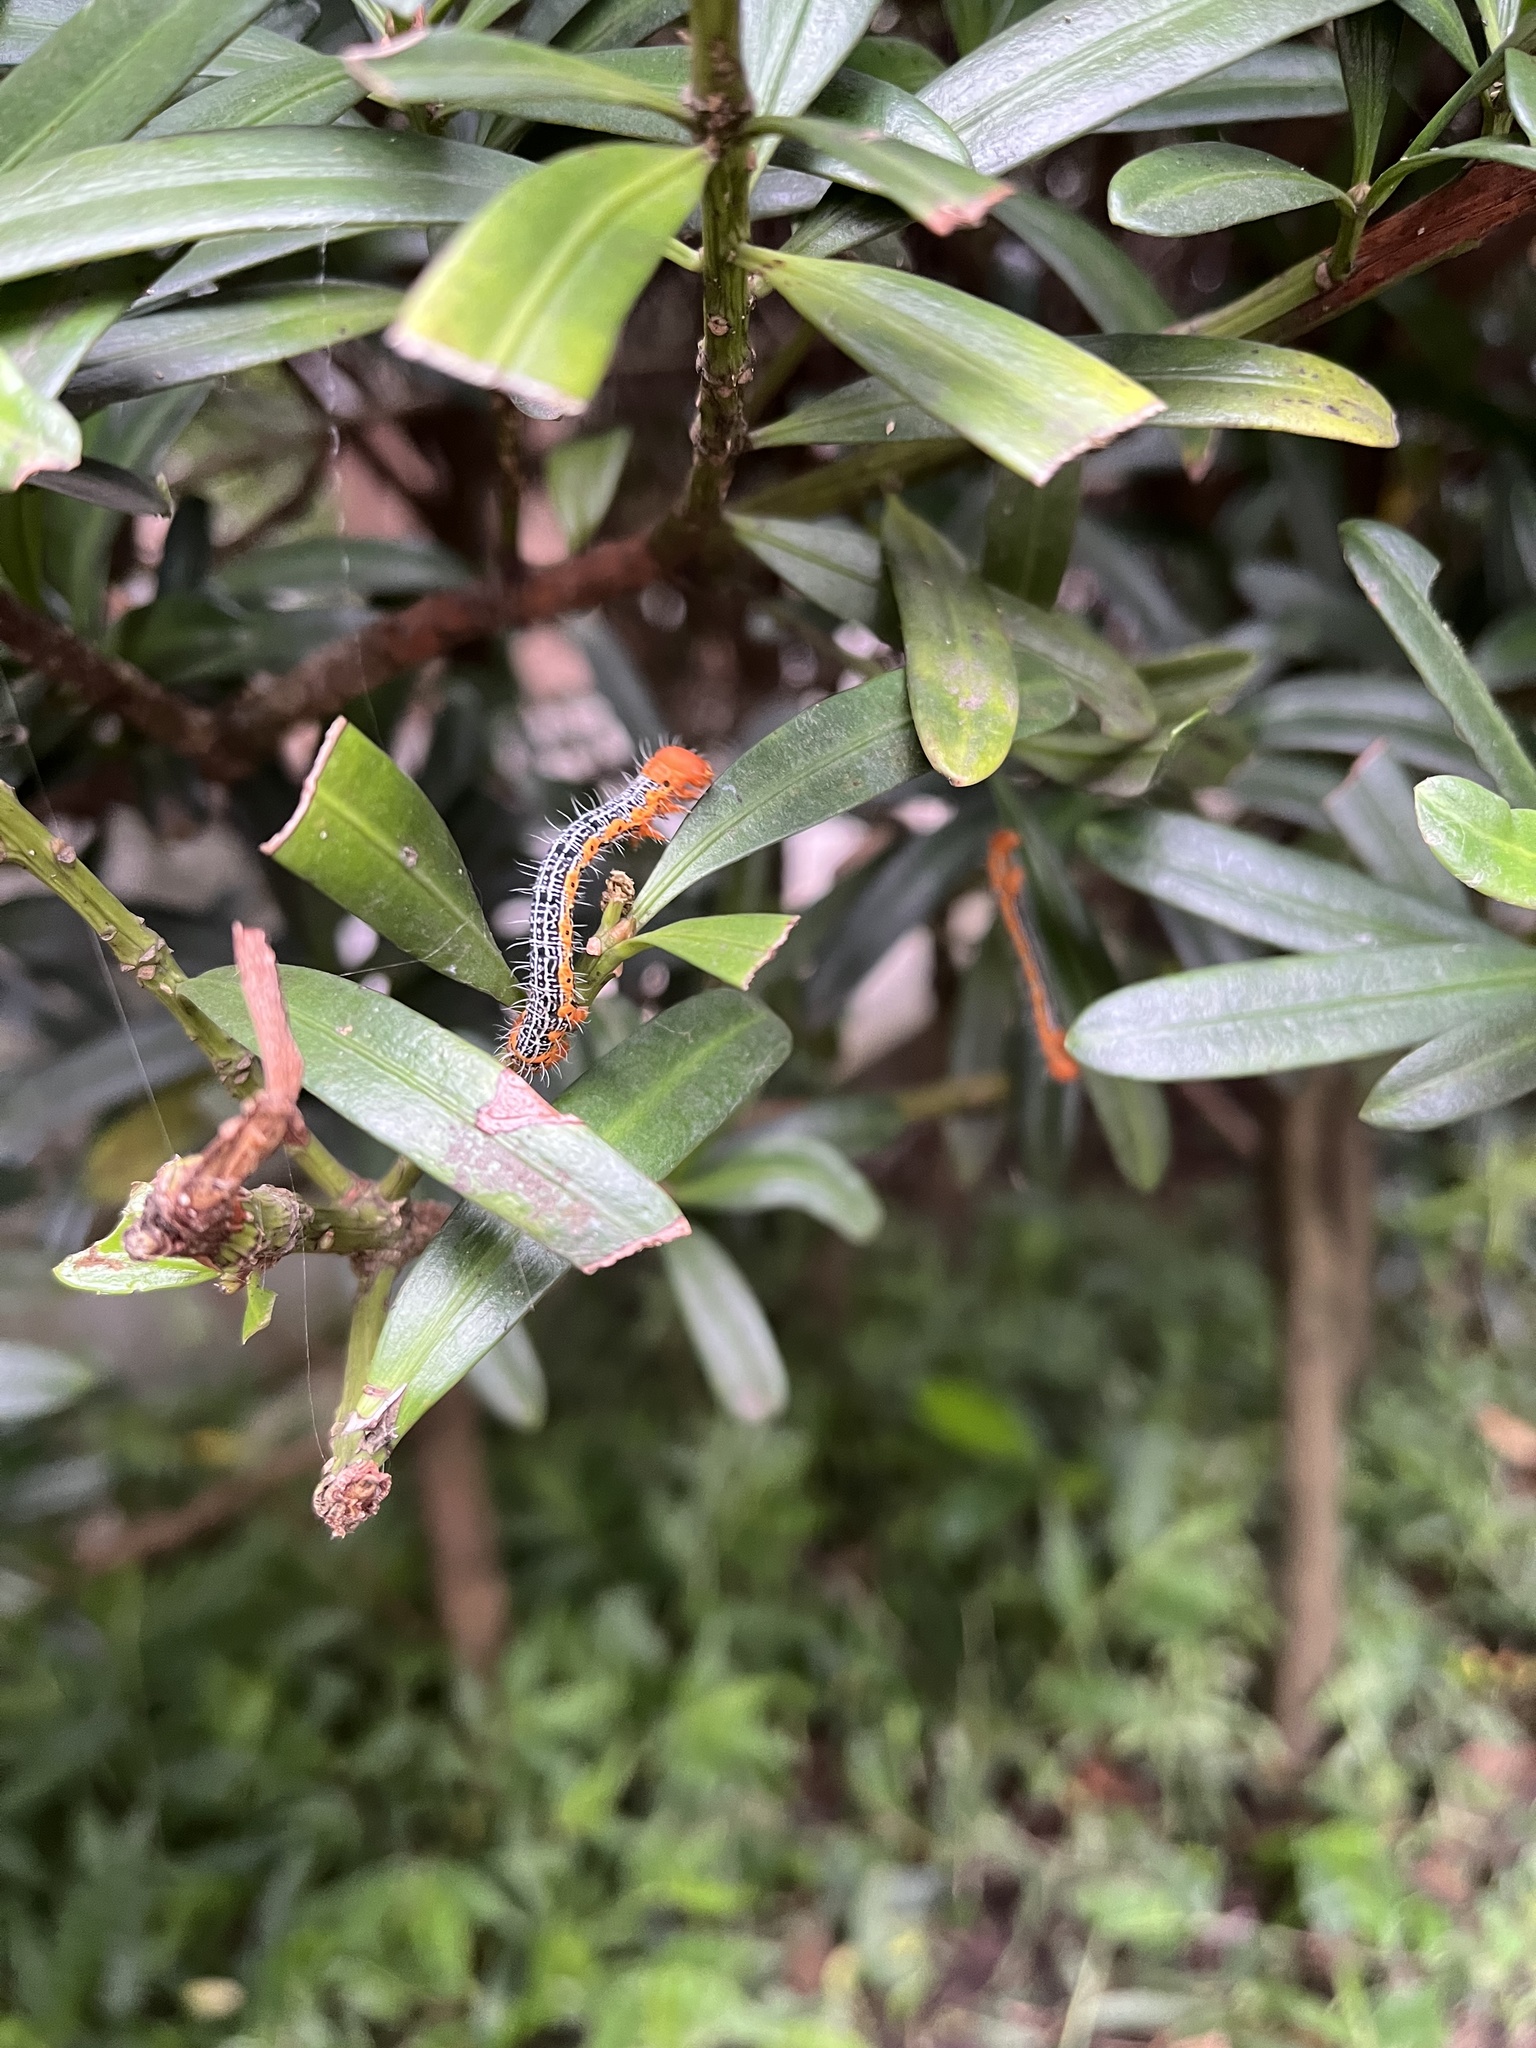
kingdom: Animalia
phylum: Arthropoda
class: Insecta
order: Lepidoptera
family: Geometridae
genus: Milionia
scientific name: Milionia basalis
